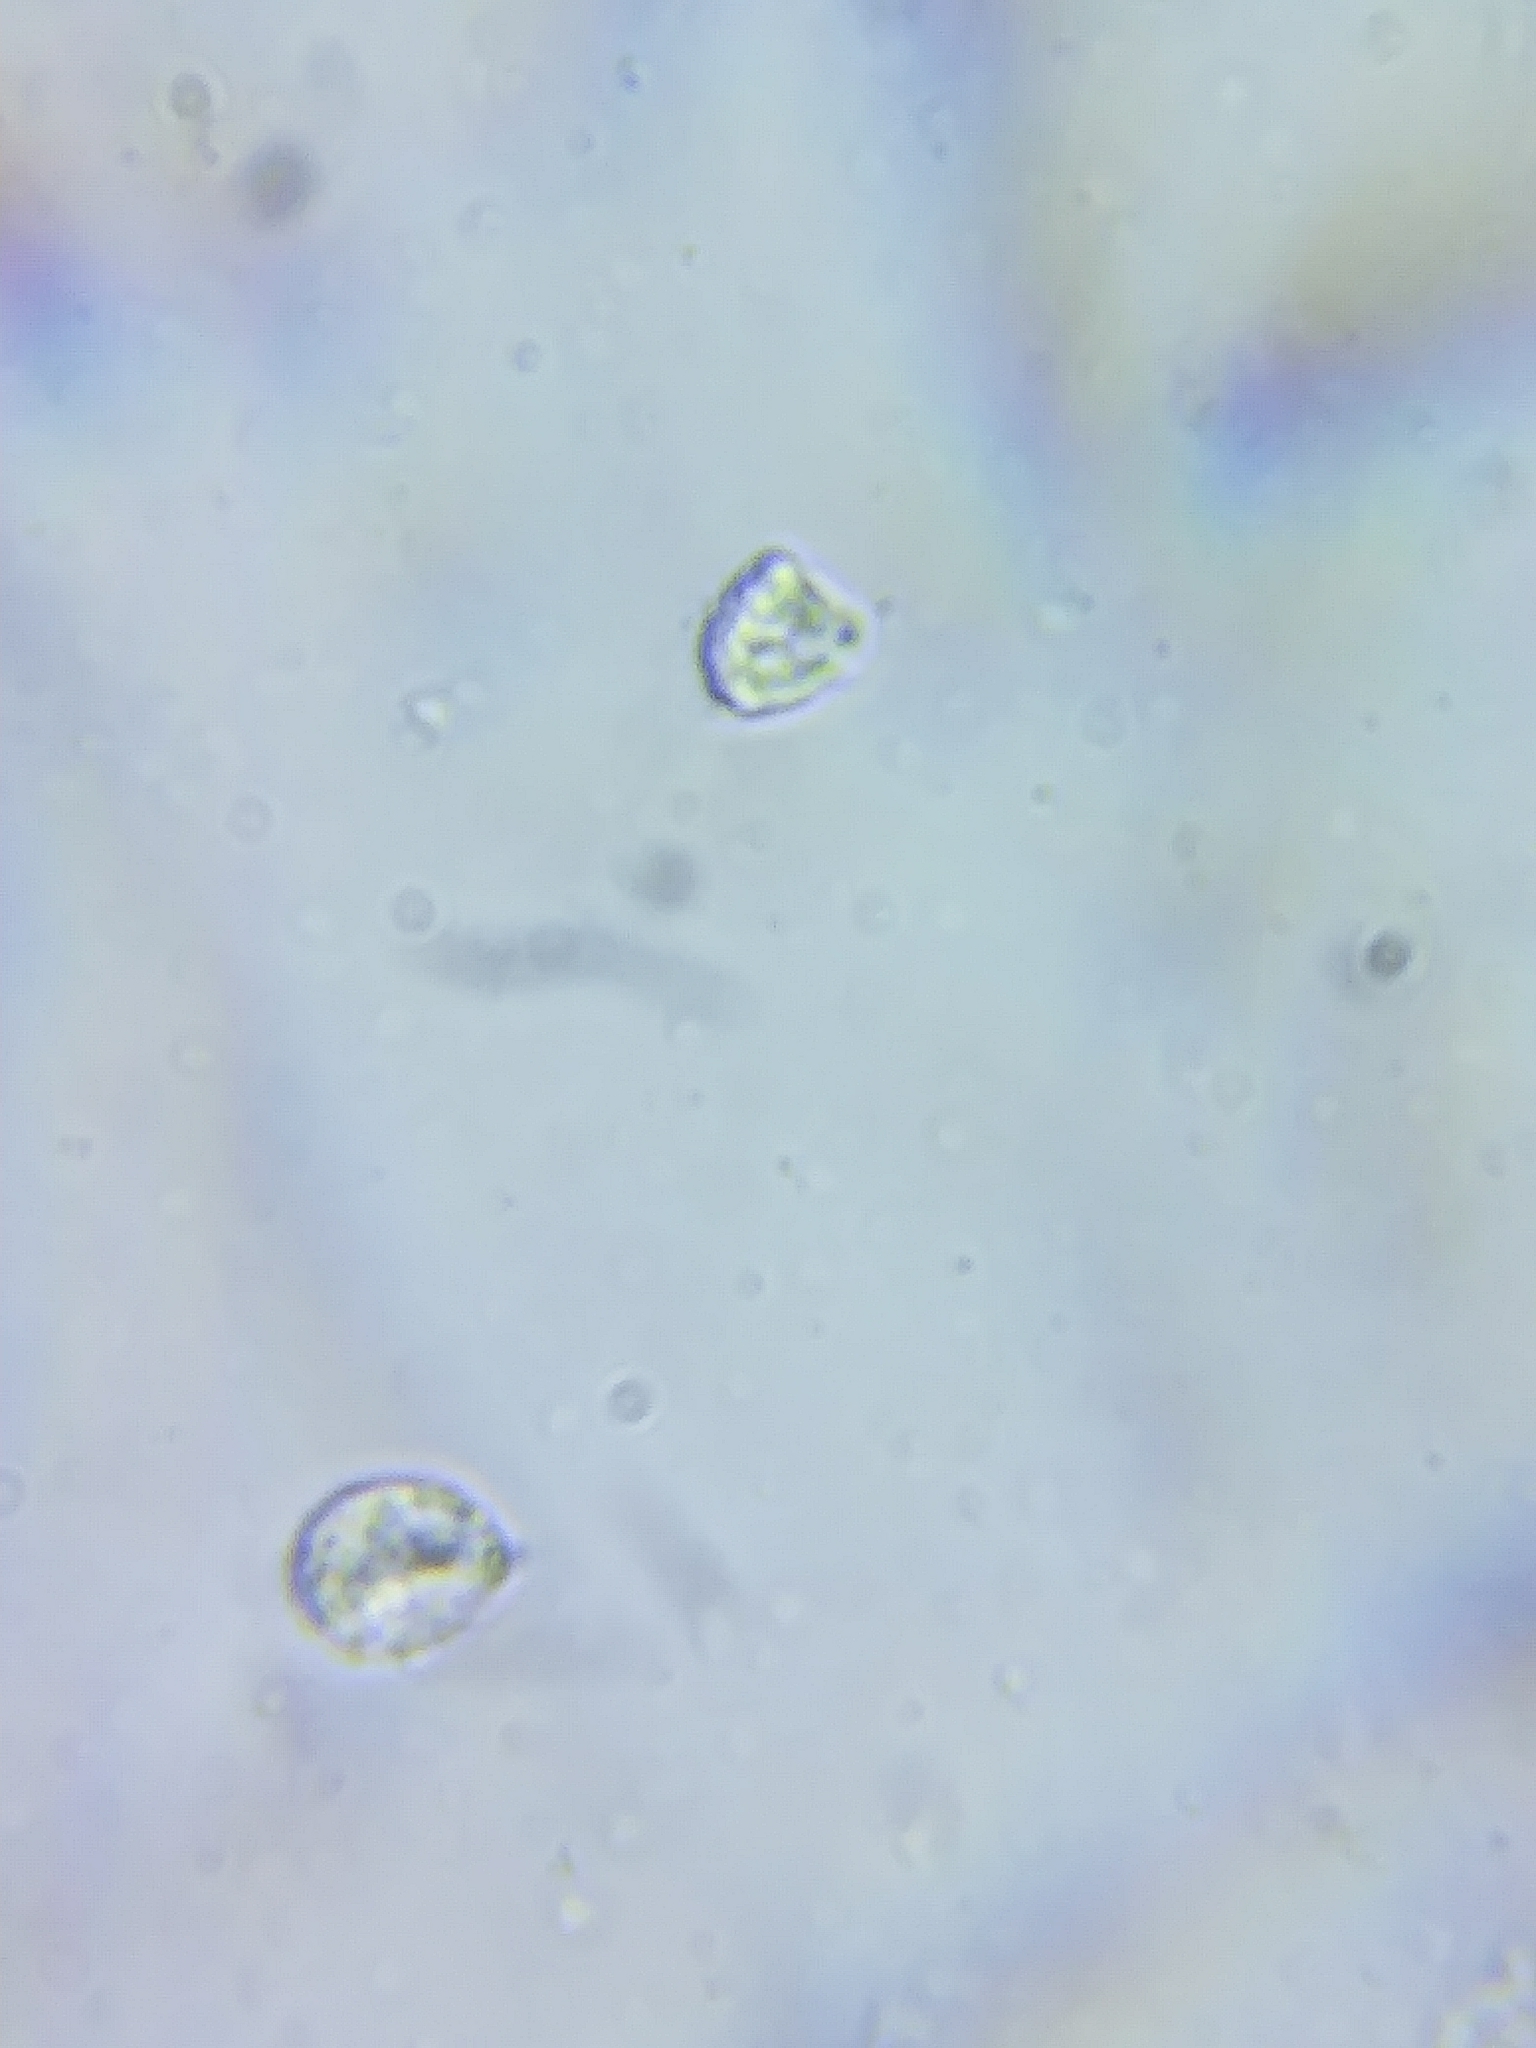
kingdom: Fungi
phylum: Basidiomycota
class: Agaricomycetes
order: Agaricales
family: Amanitaceae
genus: Amanita
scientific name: Amanita flavoconia
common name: Yellow patches
